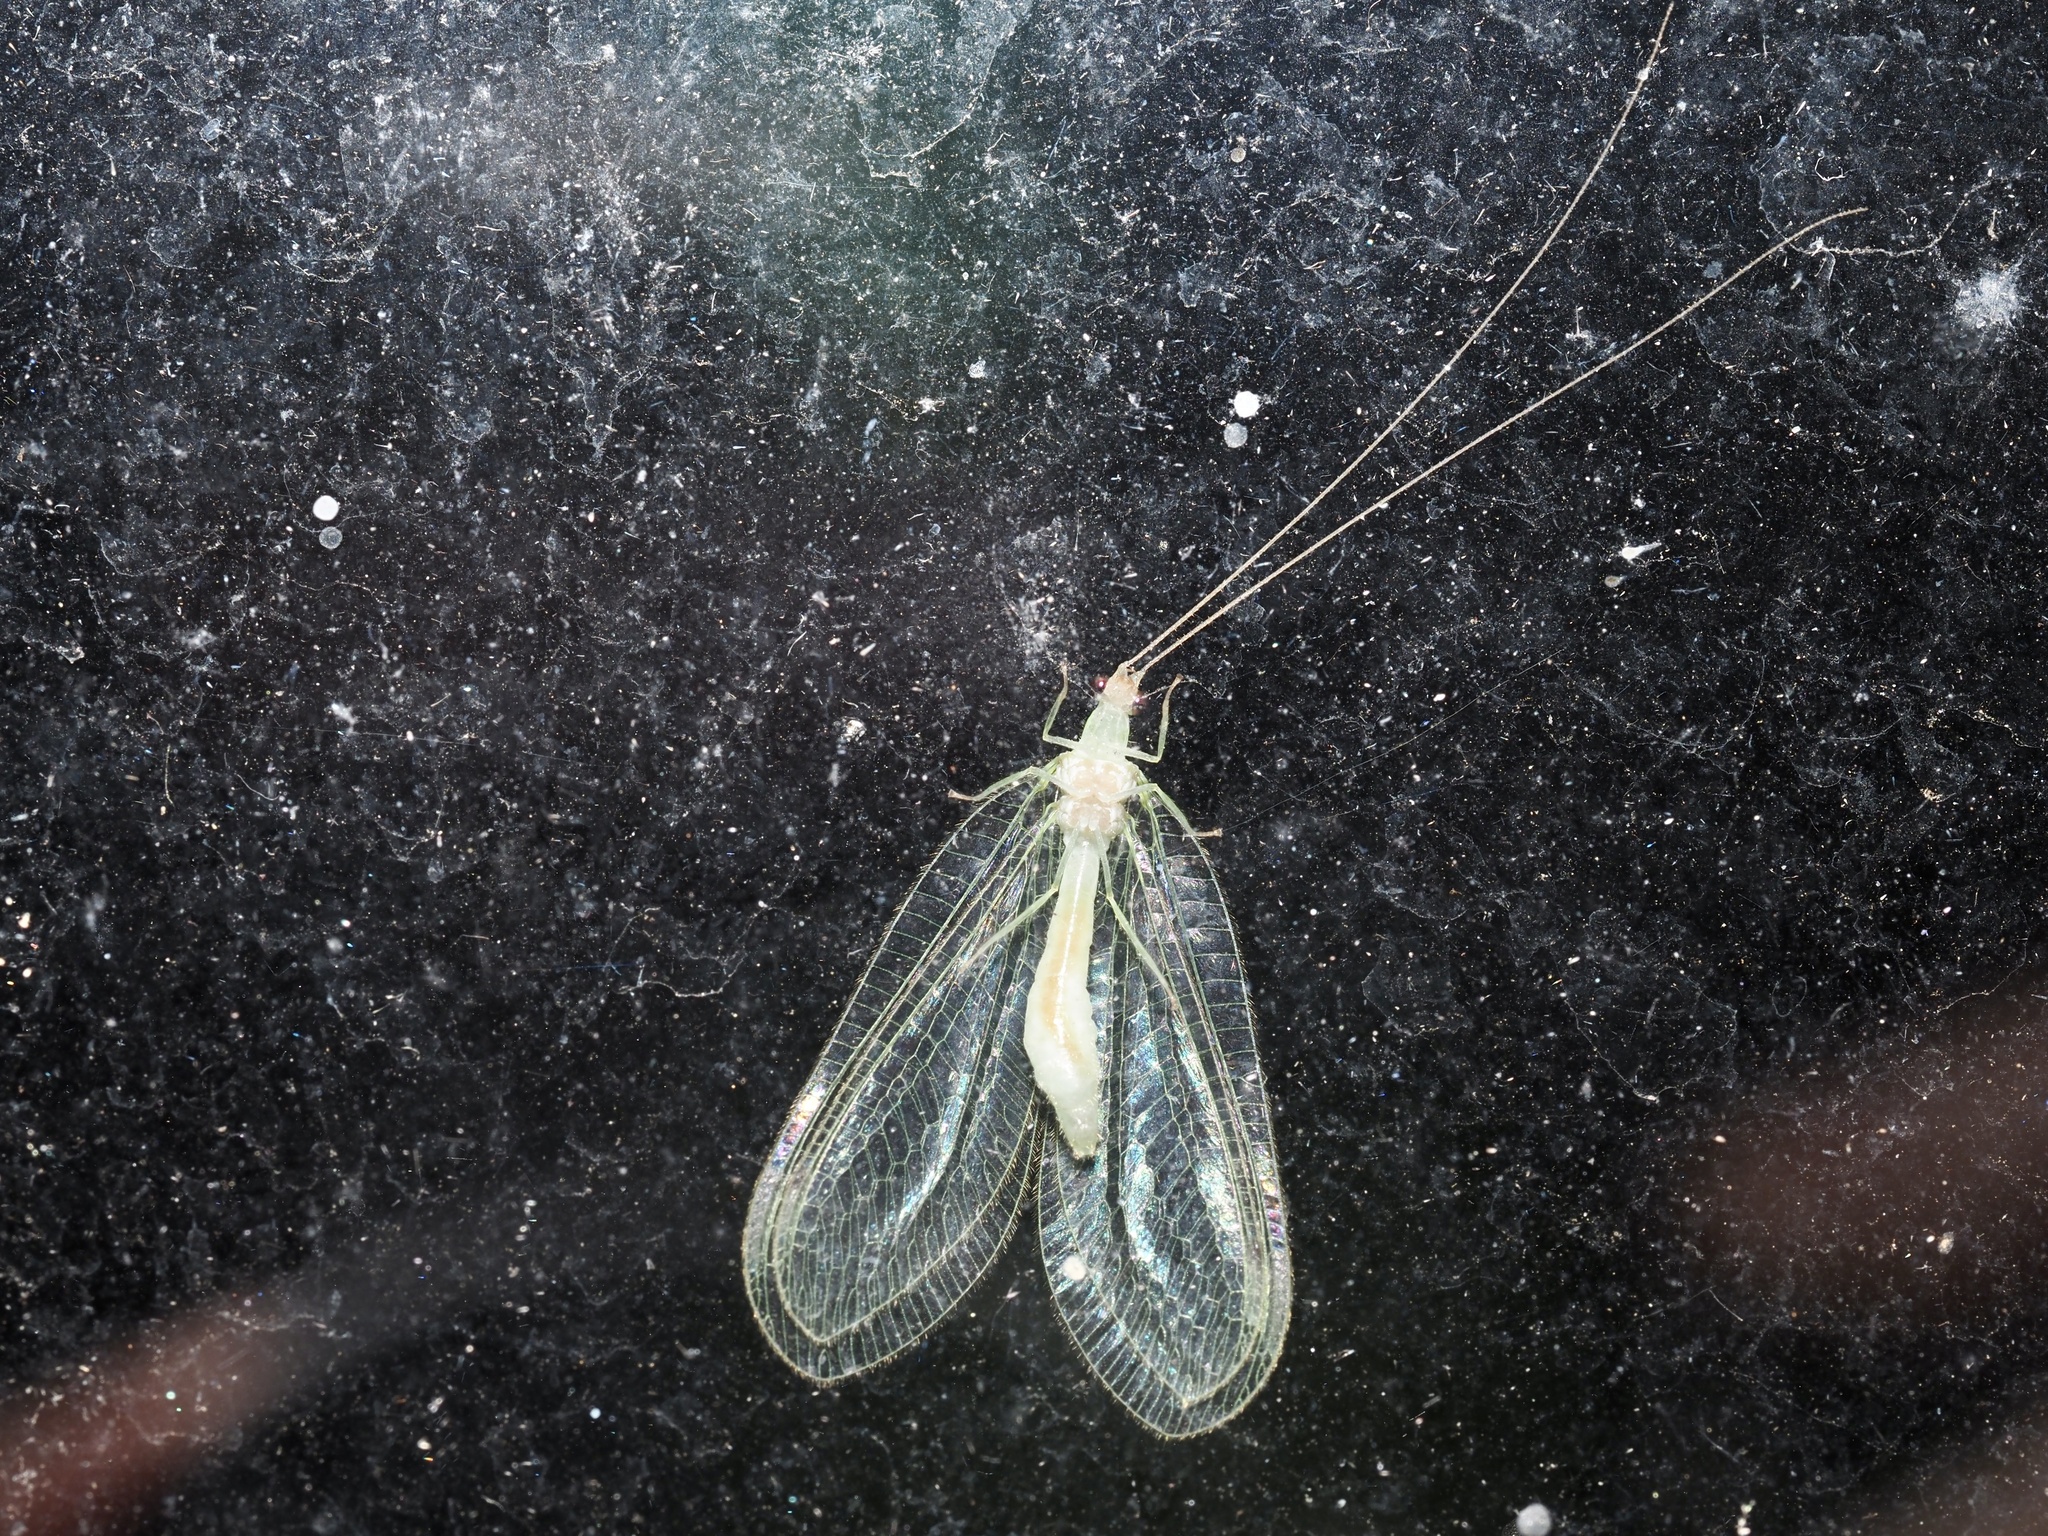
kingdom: Animalia
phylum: Arthropoda
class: Insecta
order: Neuroptera
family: Chrysopidae
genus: Leucochrysa
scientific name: Leucochrysa insularis
